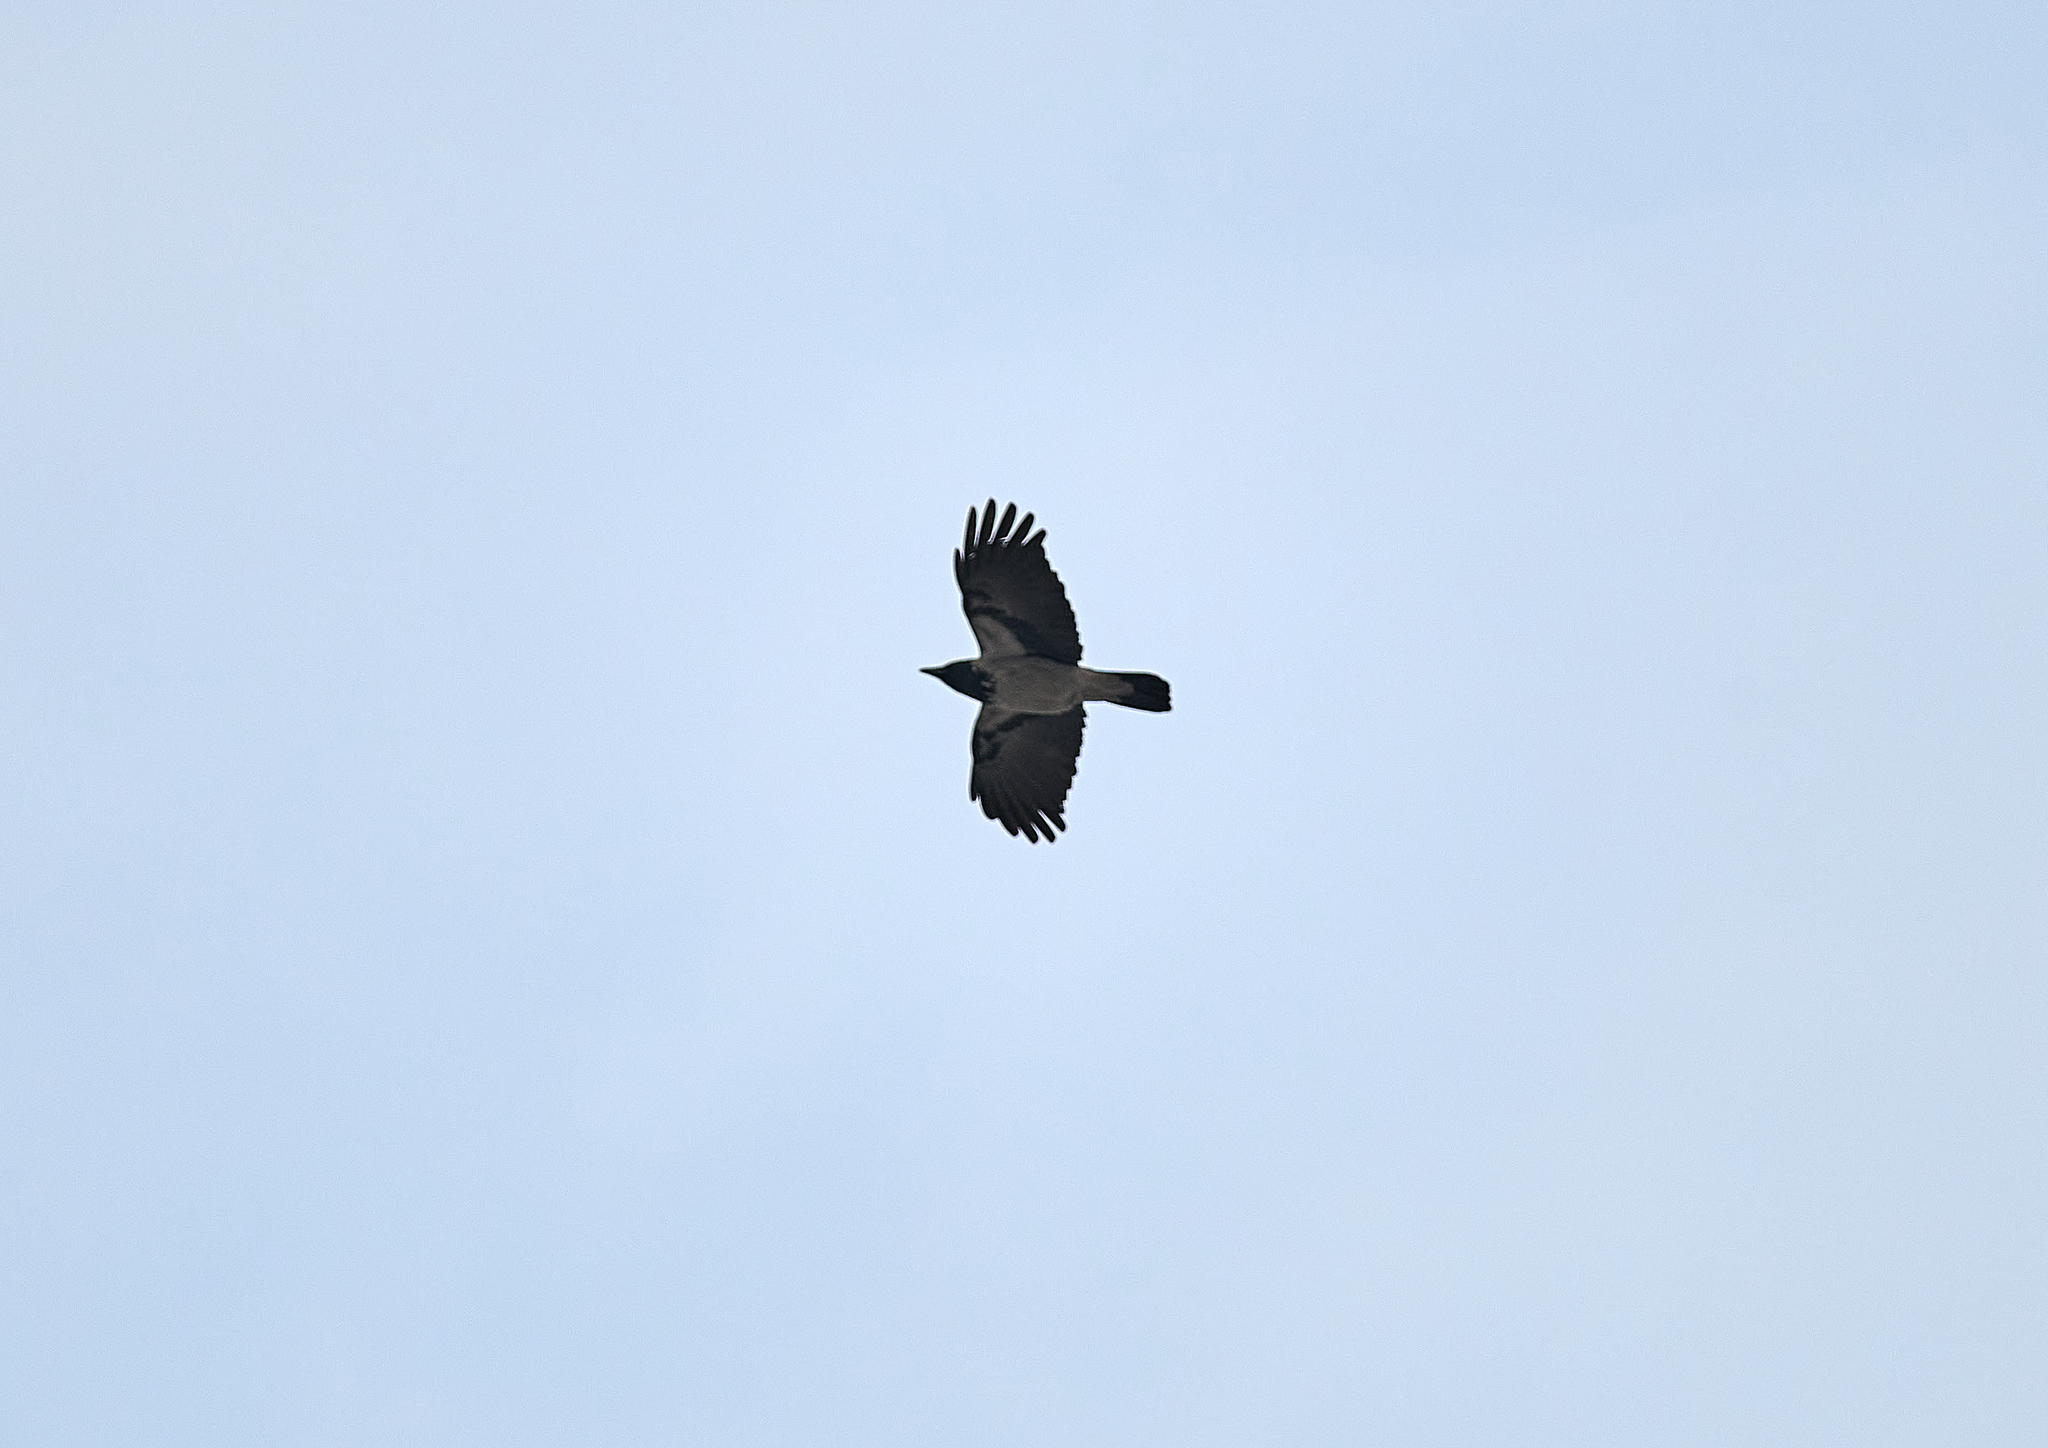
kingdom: Animalia
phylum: Chordata
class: Aves
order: Passeriformes
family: Corvidae
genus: Corvus
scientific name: Corvus cornix
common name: Hooded crow
